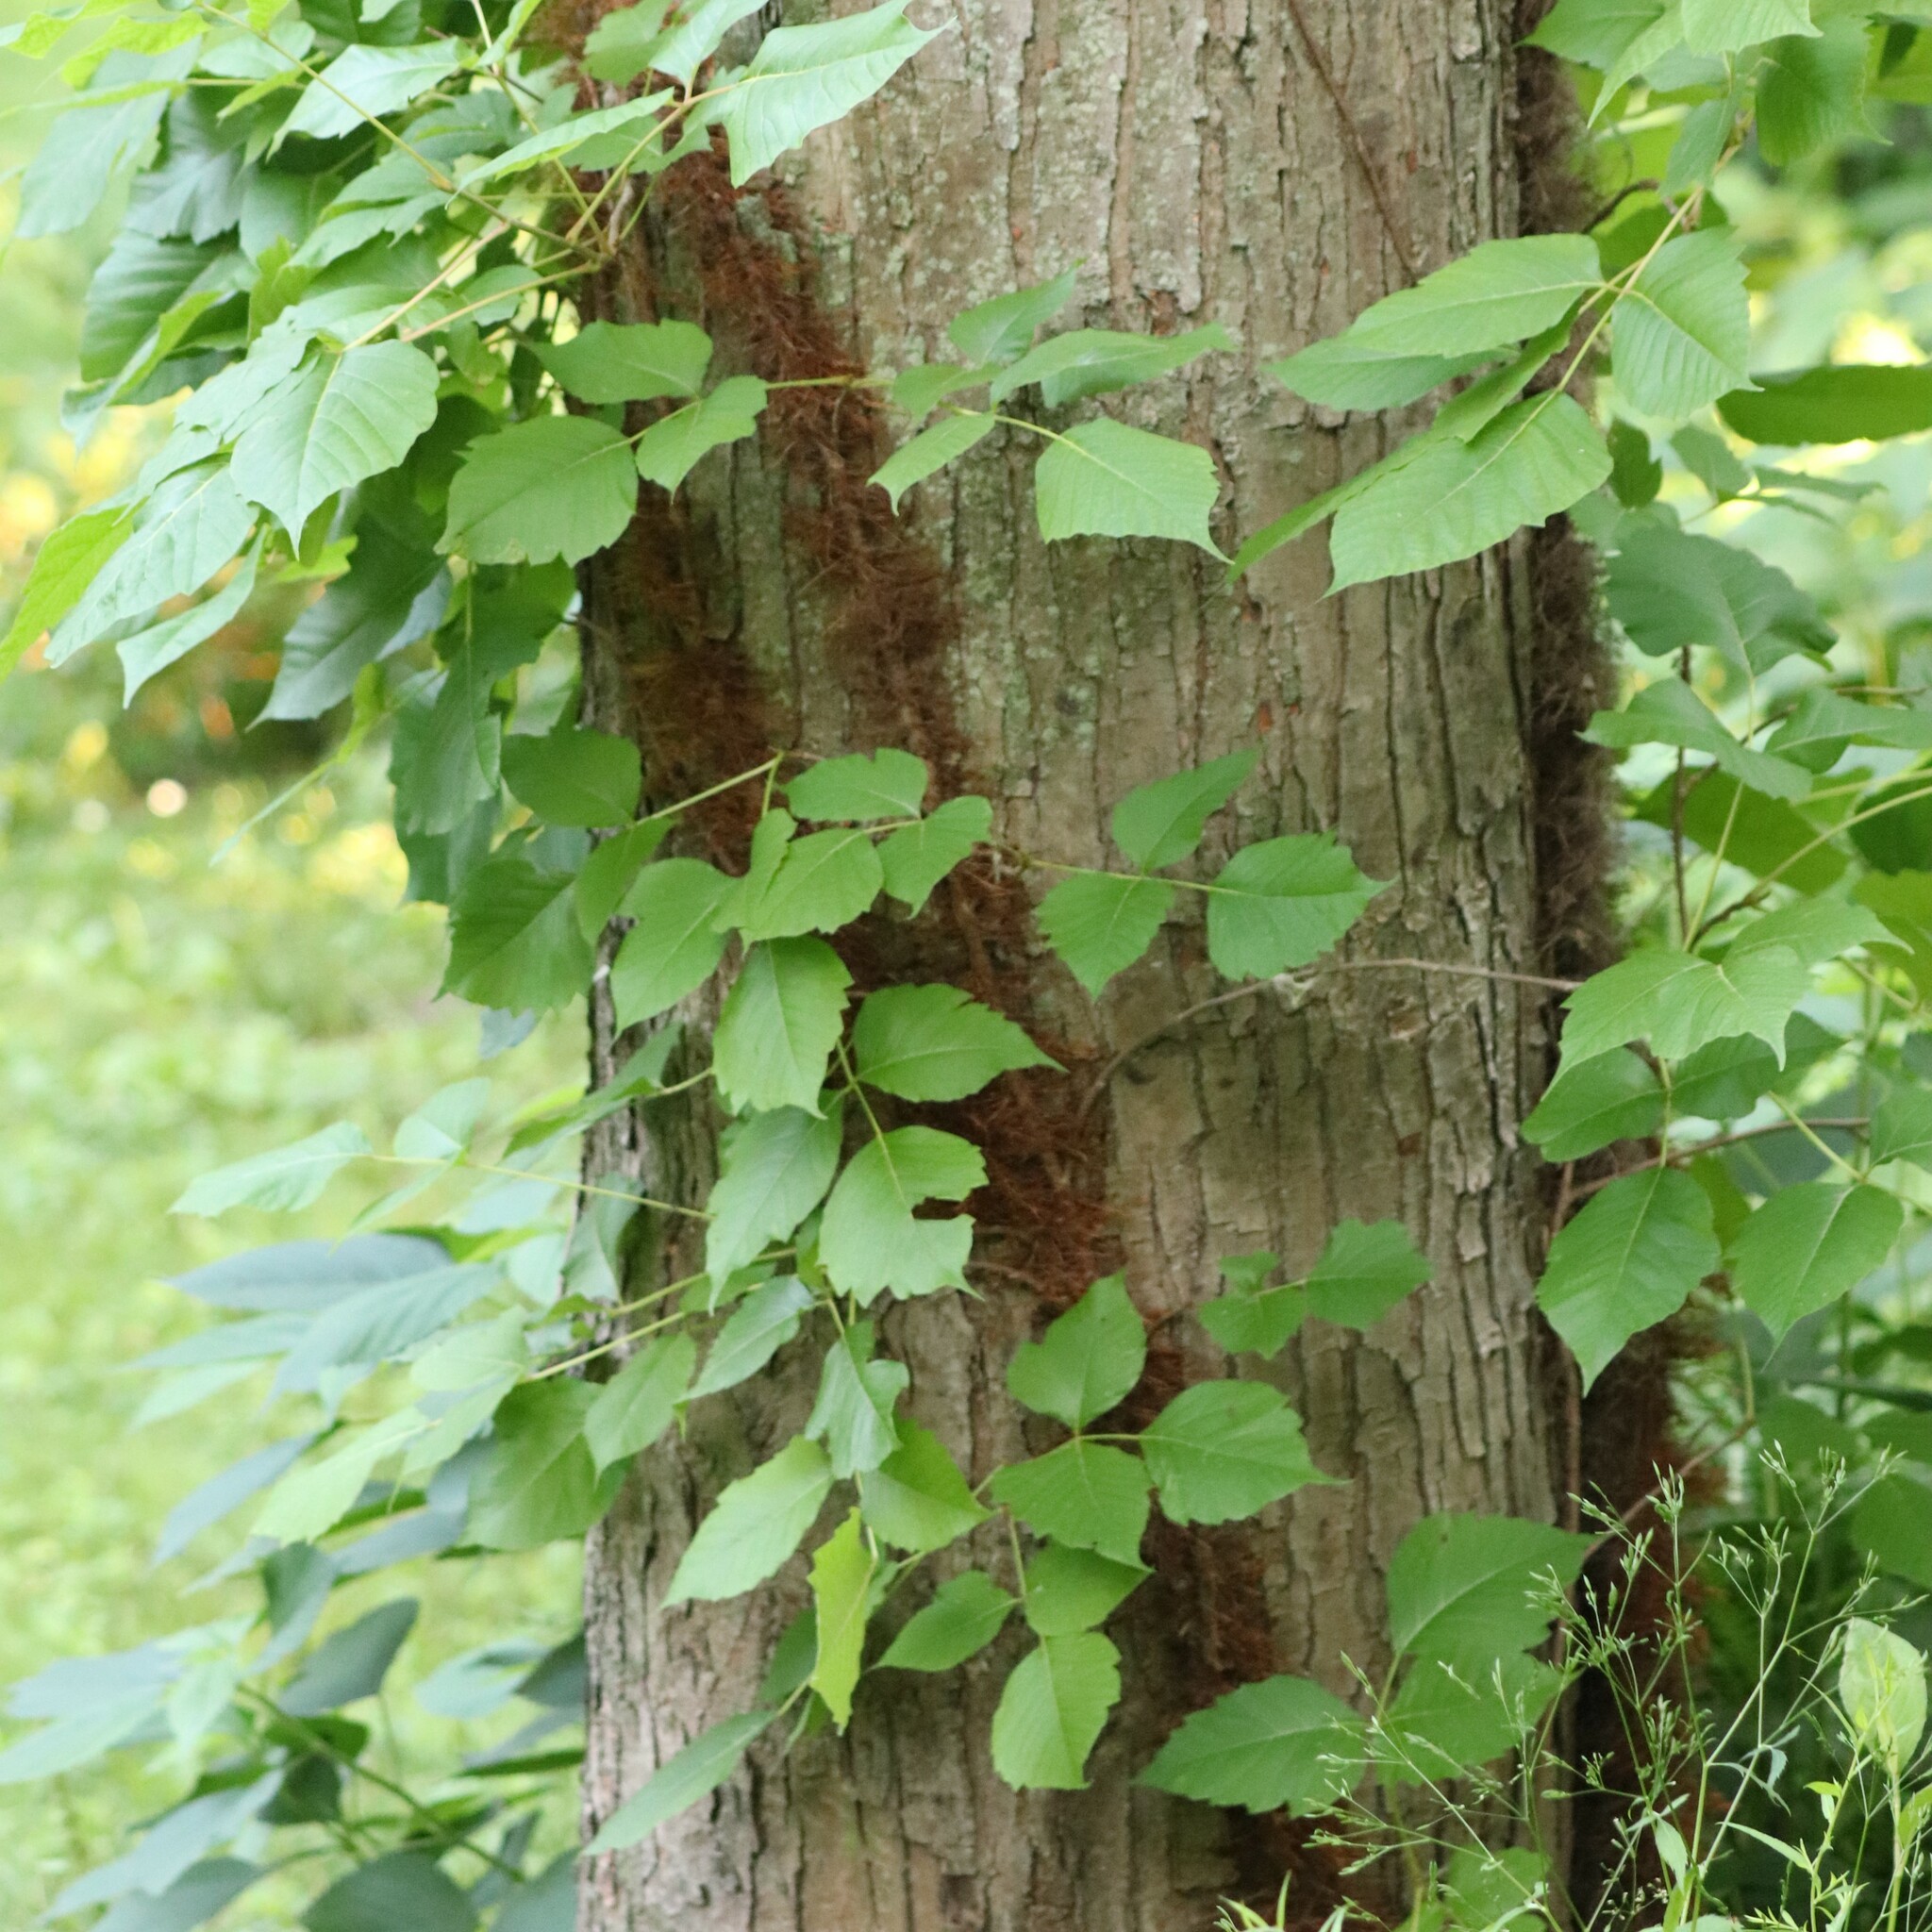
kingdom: Plantae
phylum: Tracheophyta
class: Magnoliopsida
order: Sapindales
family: Anacardiaceae
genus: Toxicodendron
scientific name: Toxicodendron radicans
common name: Poison ivy
